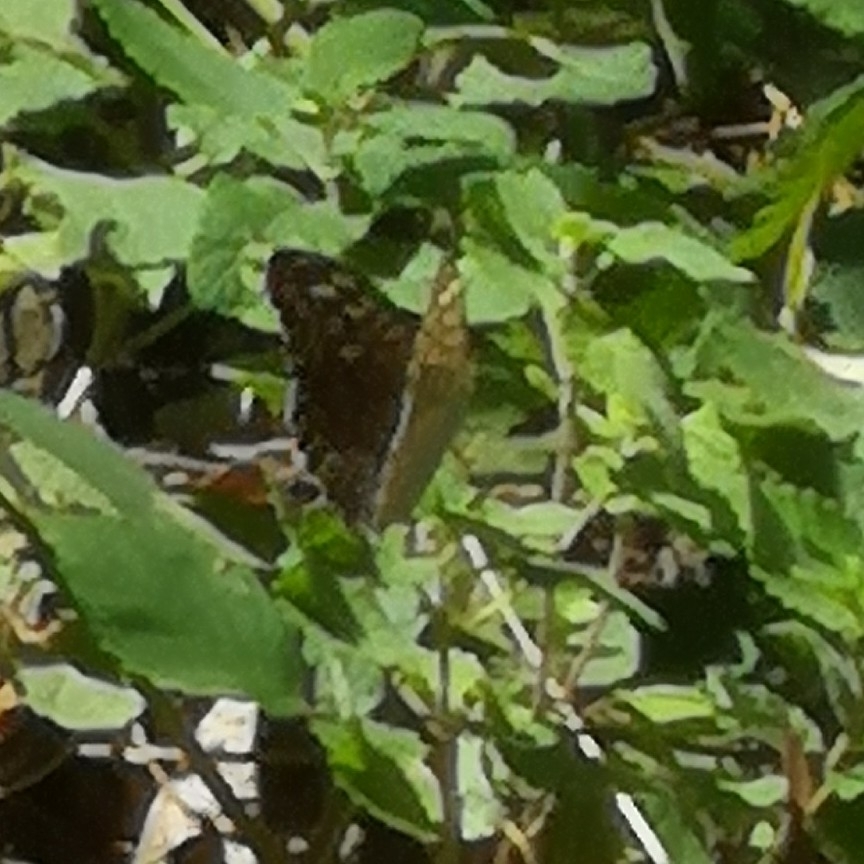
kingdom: Animalia
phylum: Arthropoda
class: Insecta
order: Lepidoptera
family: Nymphalidae
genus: Pararge
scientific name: Pararge aegeria
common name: Speckled wood
